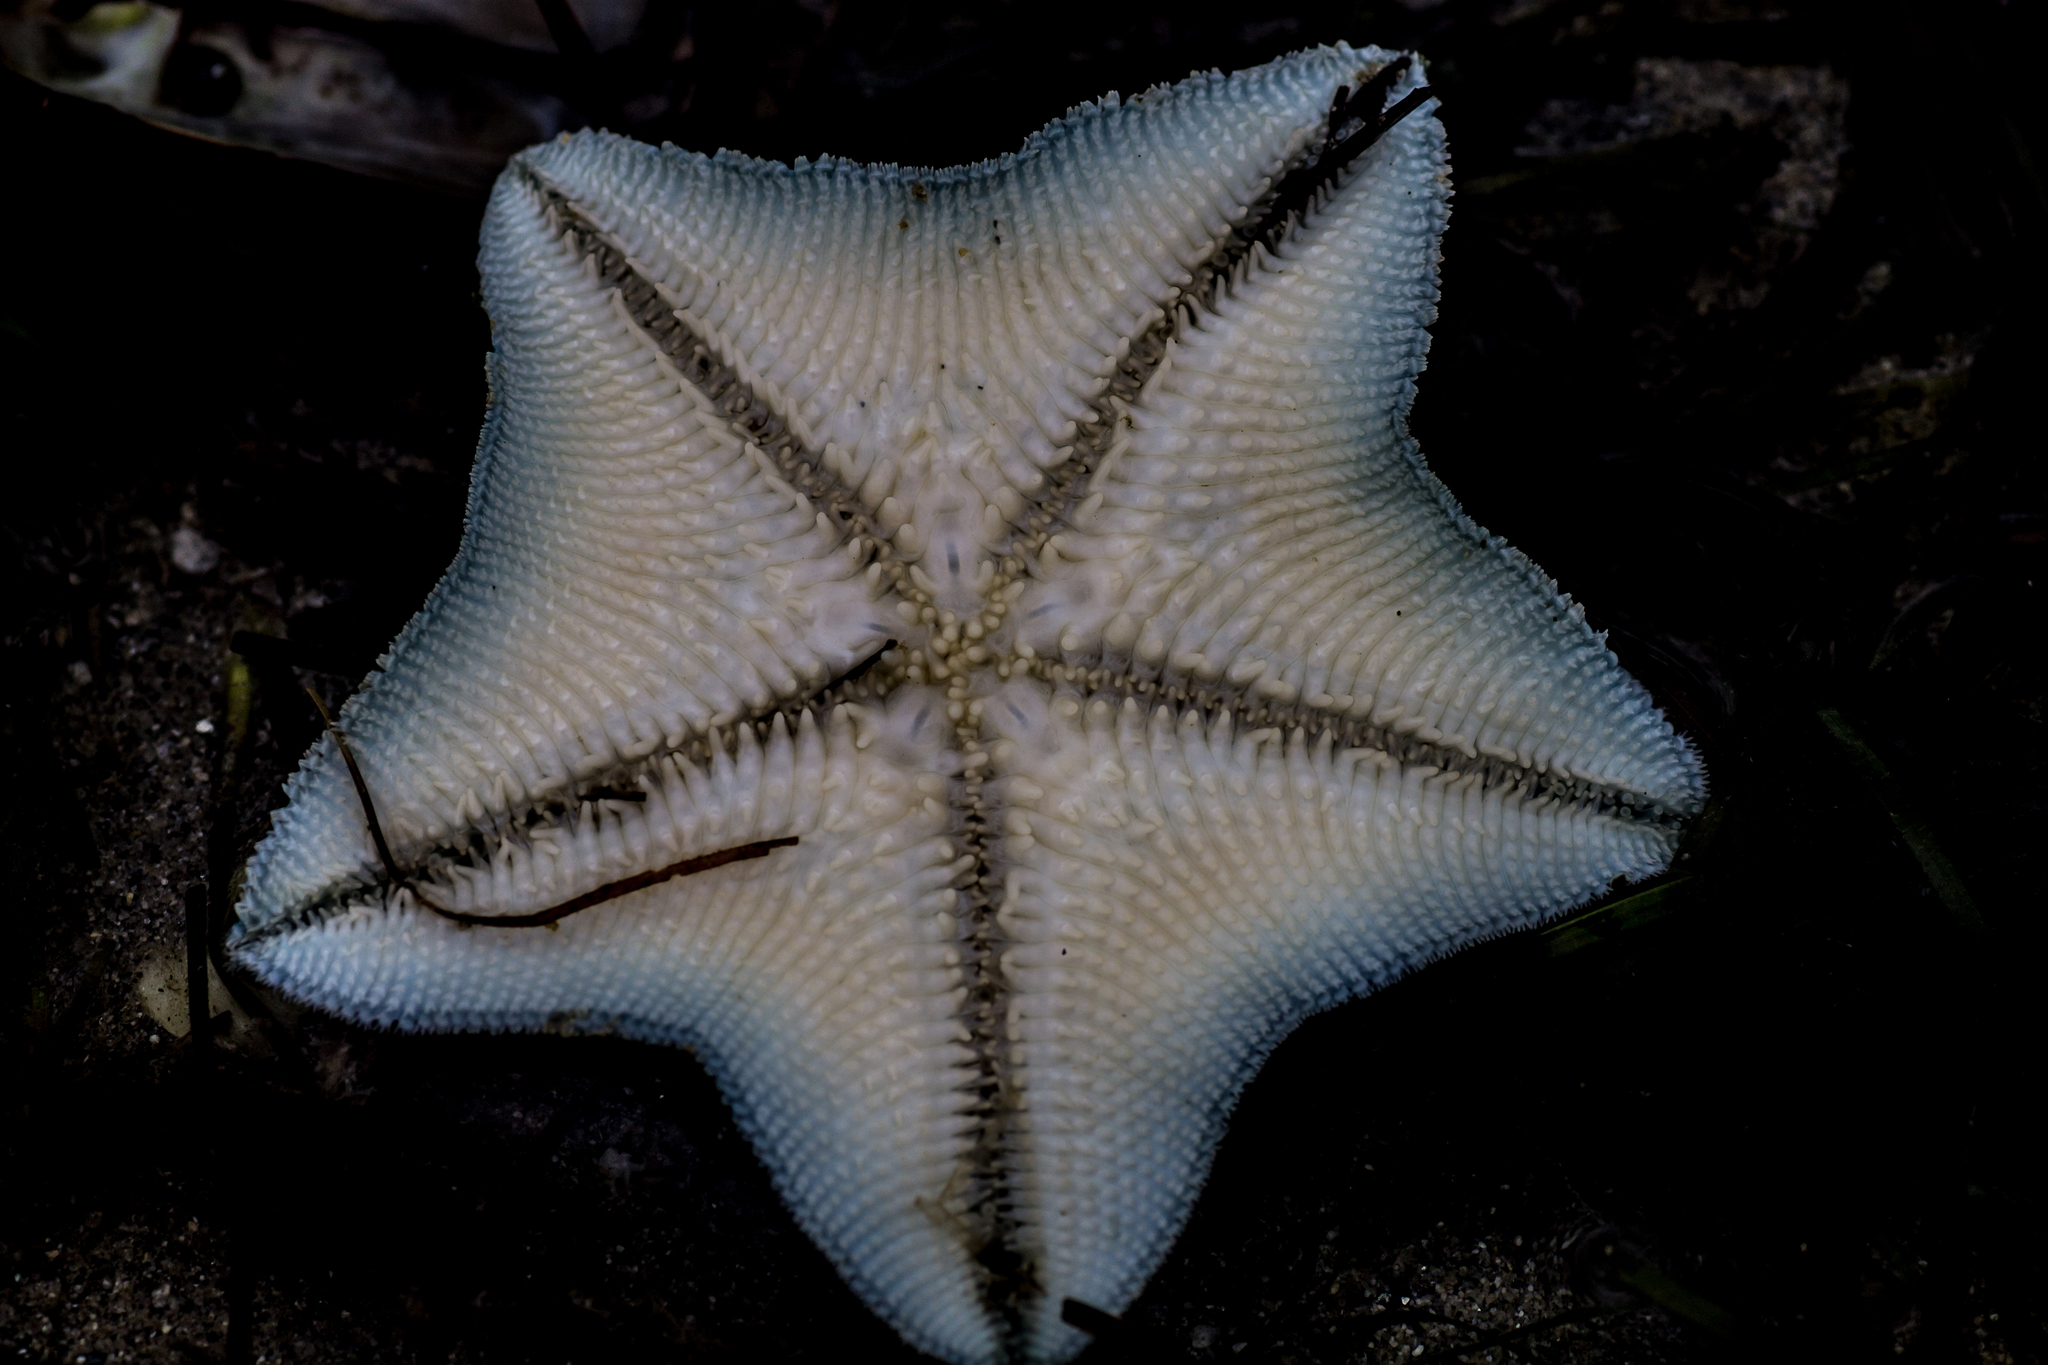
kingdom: Animalia
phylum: Echinodermata
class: Asteroidea
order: Valvatida
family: Asterinidae
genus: Patiriella
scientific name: Patiriella regularis
